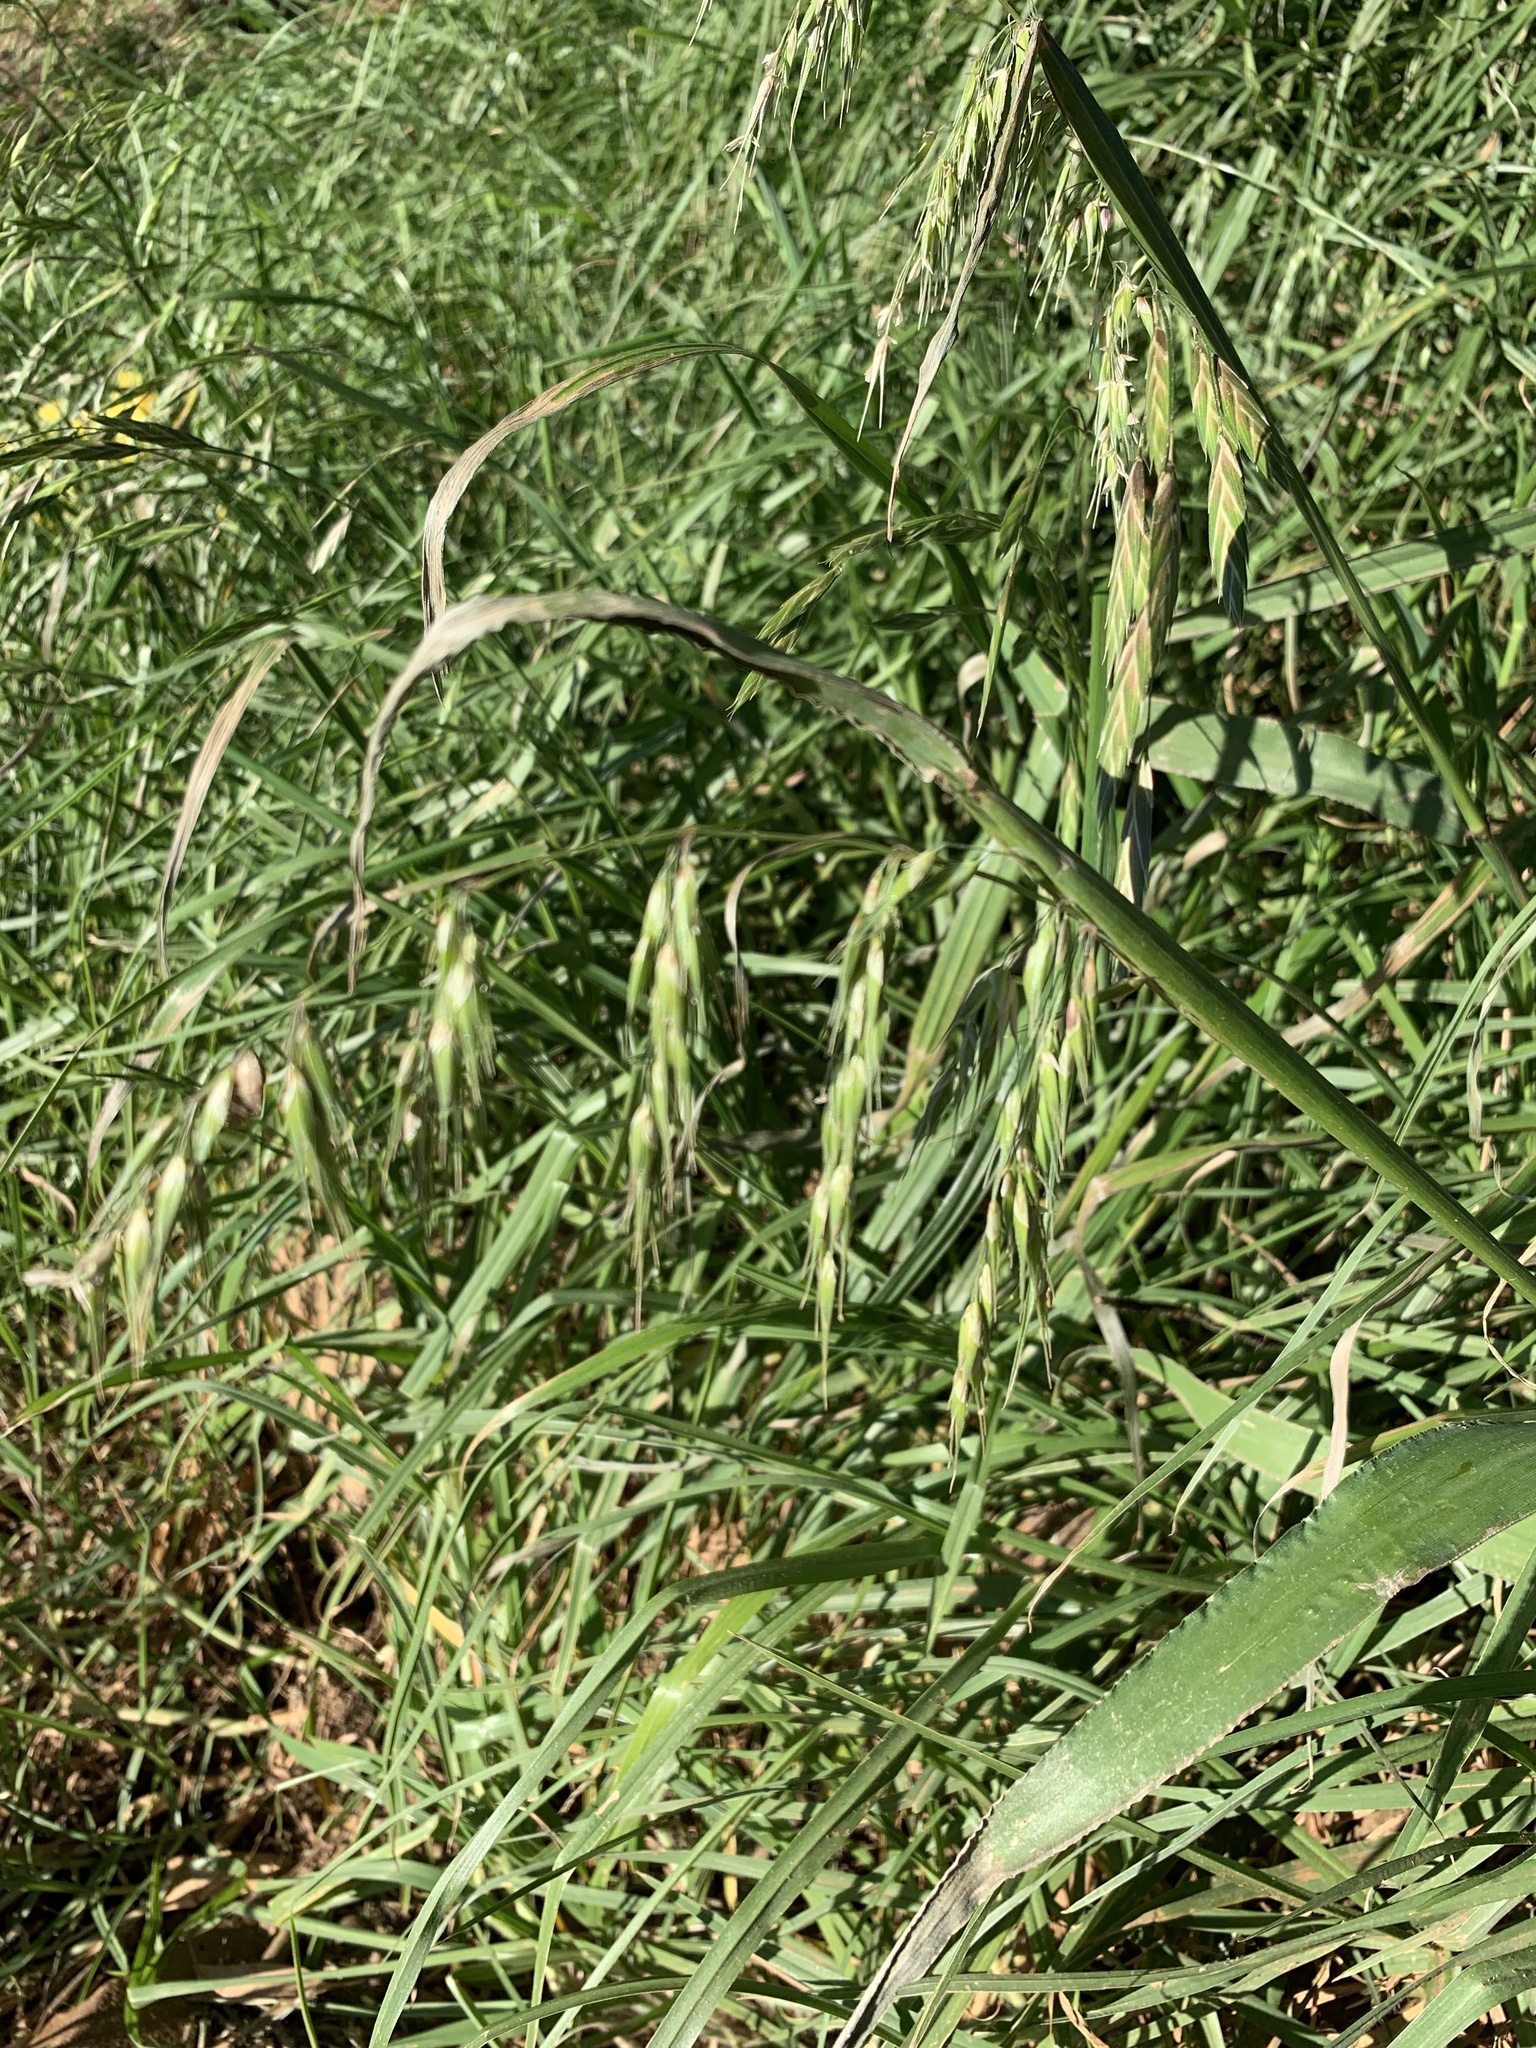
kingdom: Plantae
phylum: Tracheophyta
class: Liliopsida
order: Poales
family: Poaceae
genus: Ehrharta
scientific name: Ehrharta longiflora
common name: Longflowered veldtgrass
